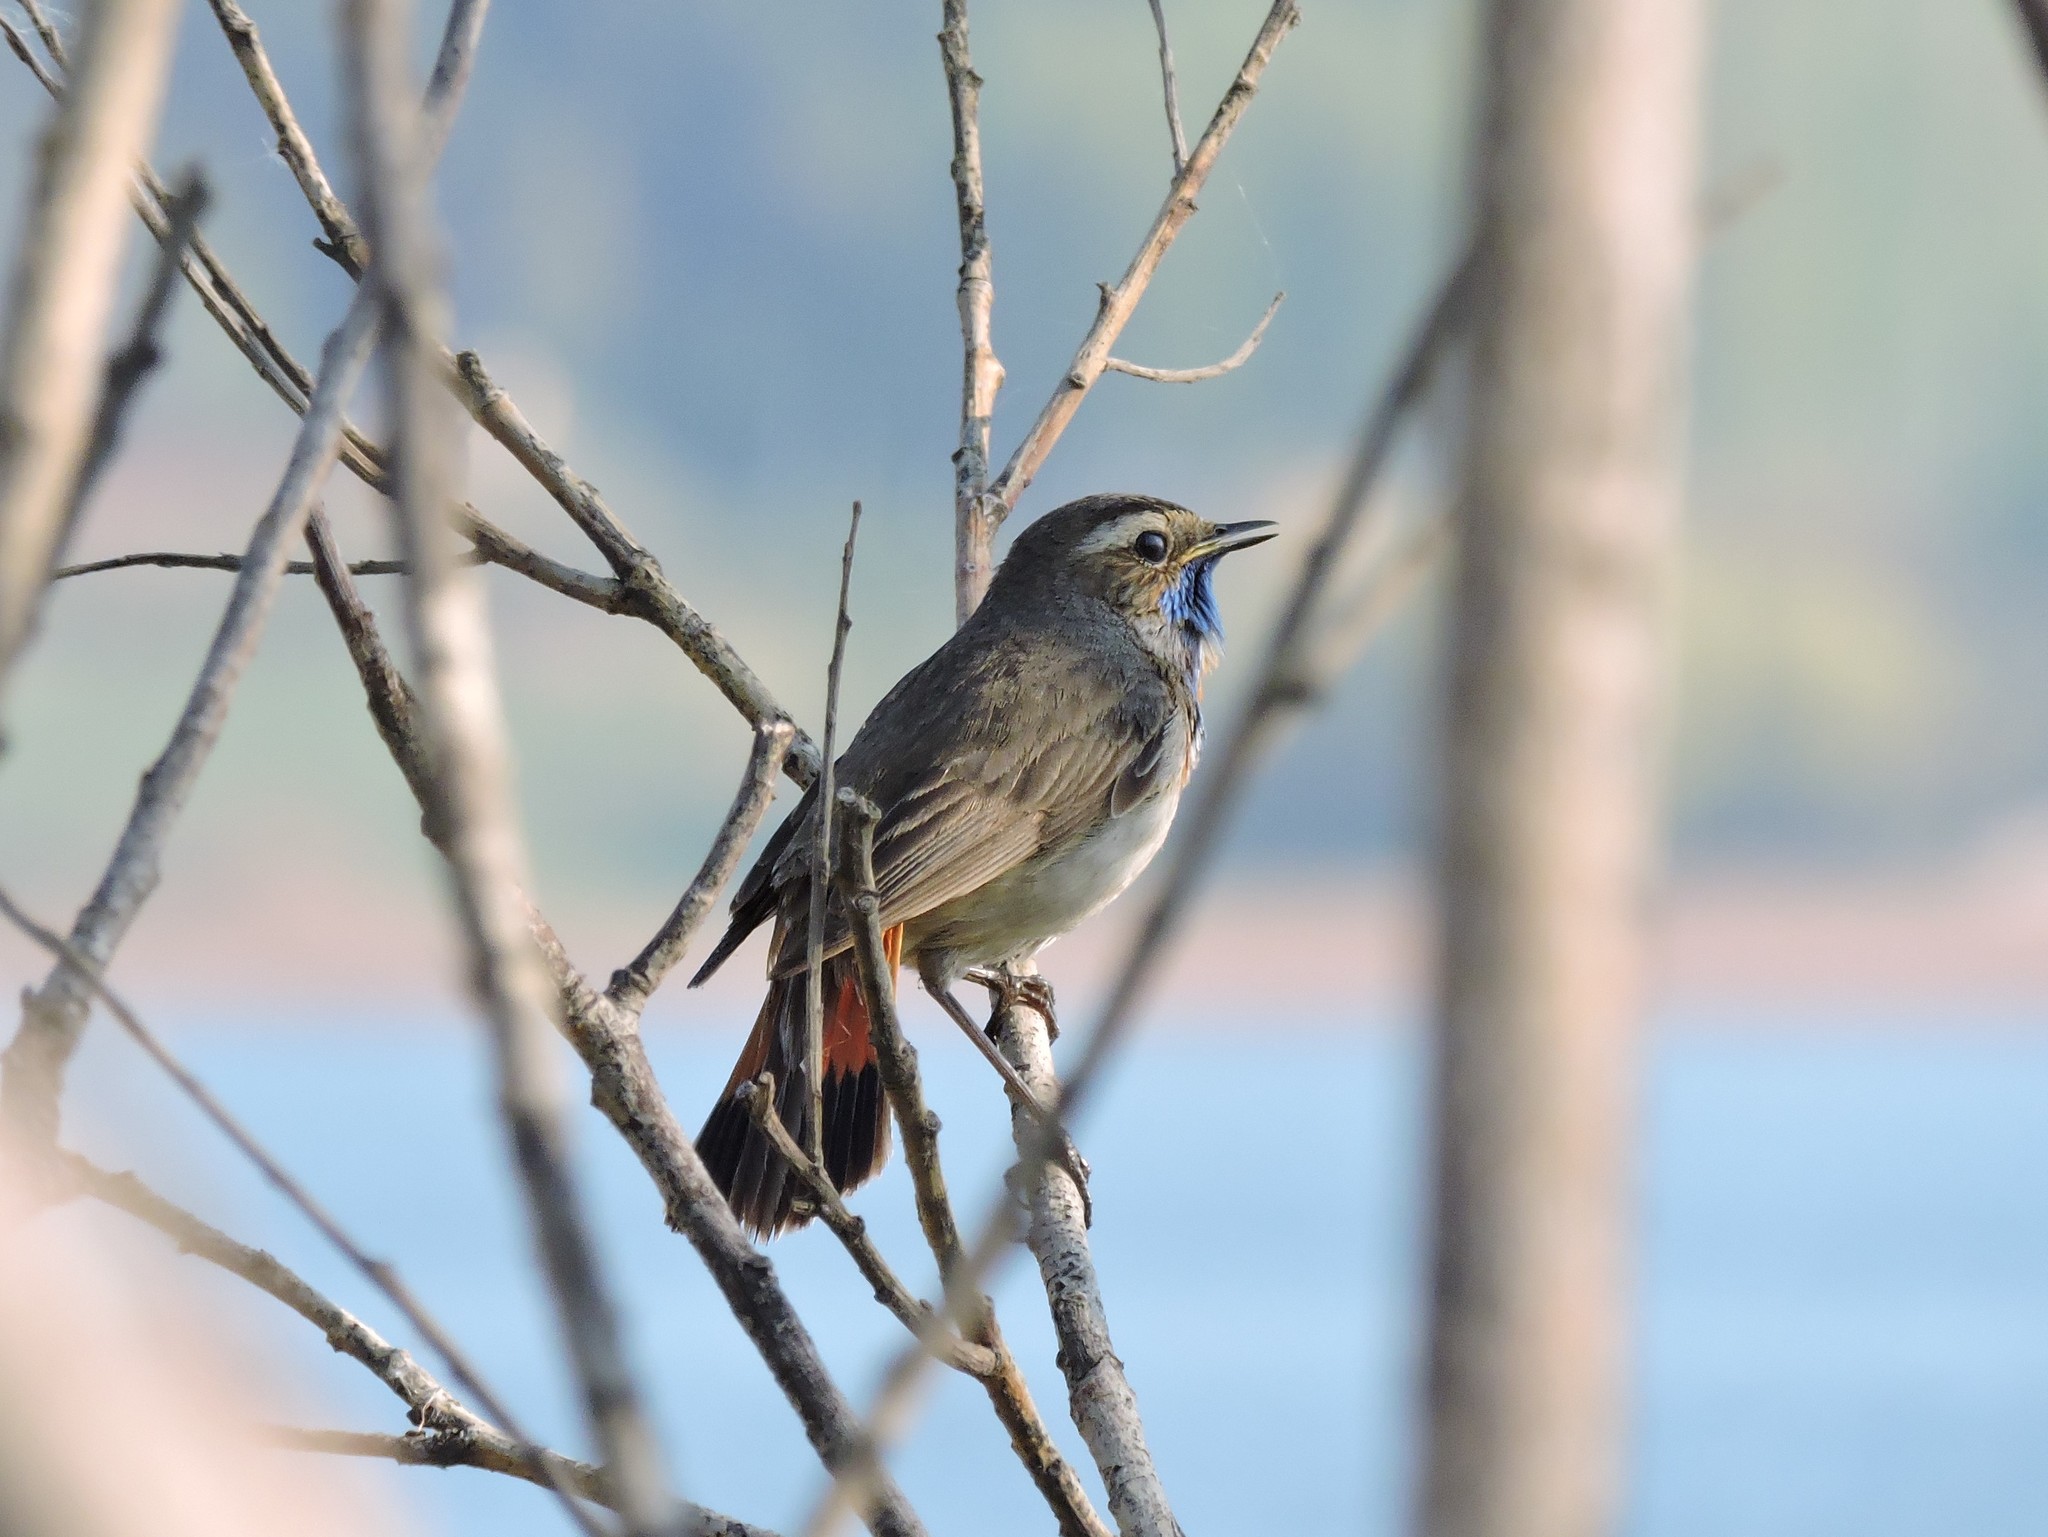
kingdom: Animalia
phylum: Chordata
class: Aves
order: Passeriformes
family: Muscicapidae
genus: Luscinia
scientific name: Luscinia svecica
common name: Bluethroat
